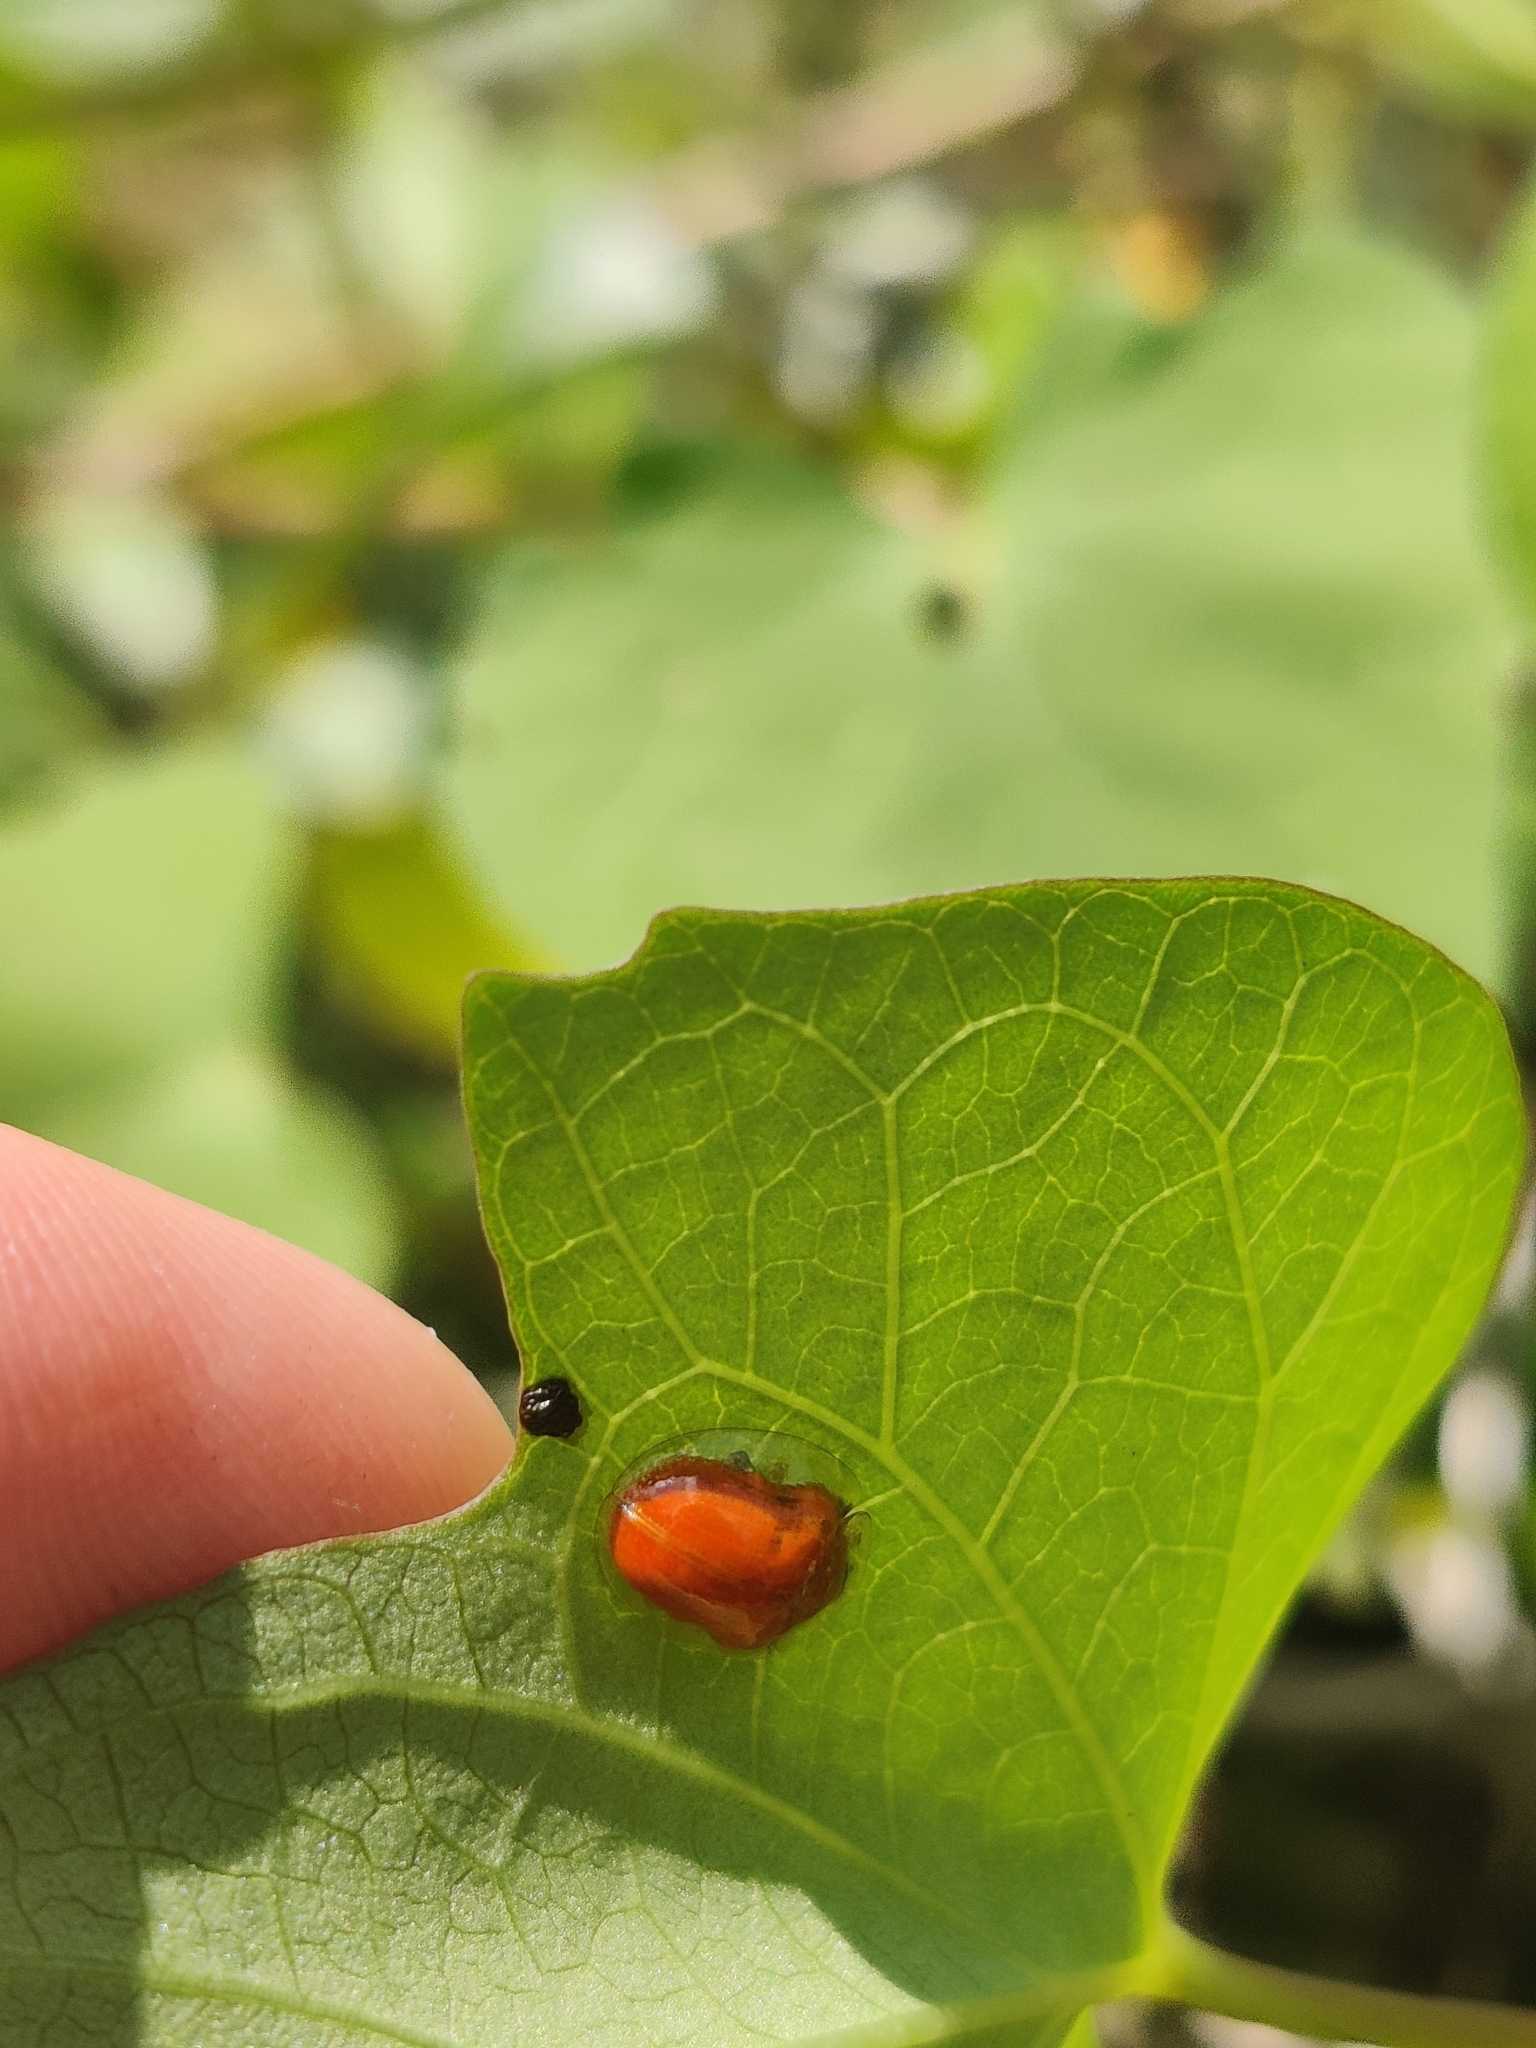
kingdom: Animalia
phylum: Arthropoda
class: Insecta
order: Coleoptera
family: Chrysomelidae
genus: Charidotella
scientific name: Charidotella sexpunctata
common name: Golden tortoise beetle
